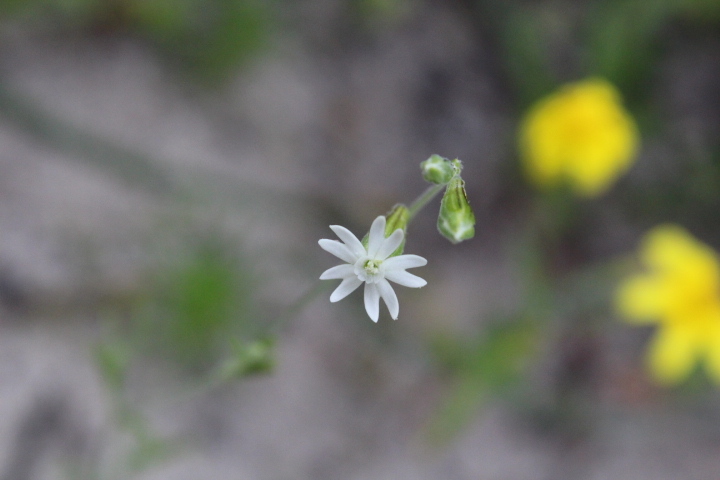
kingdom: Plantae
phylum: Tracheophyta
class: Magnoliopsida
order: Caryophyllales
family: Caryophyllaceae
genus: Silene
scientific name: Silene aethiopica
